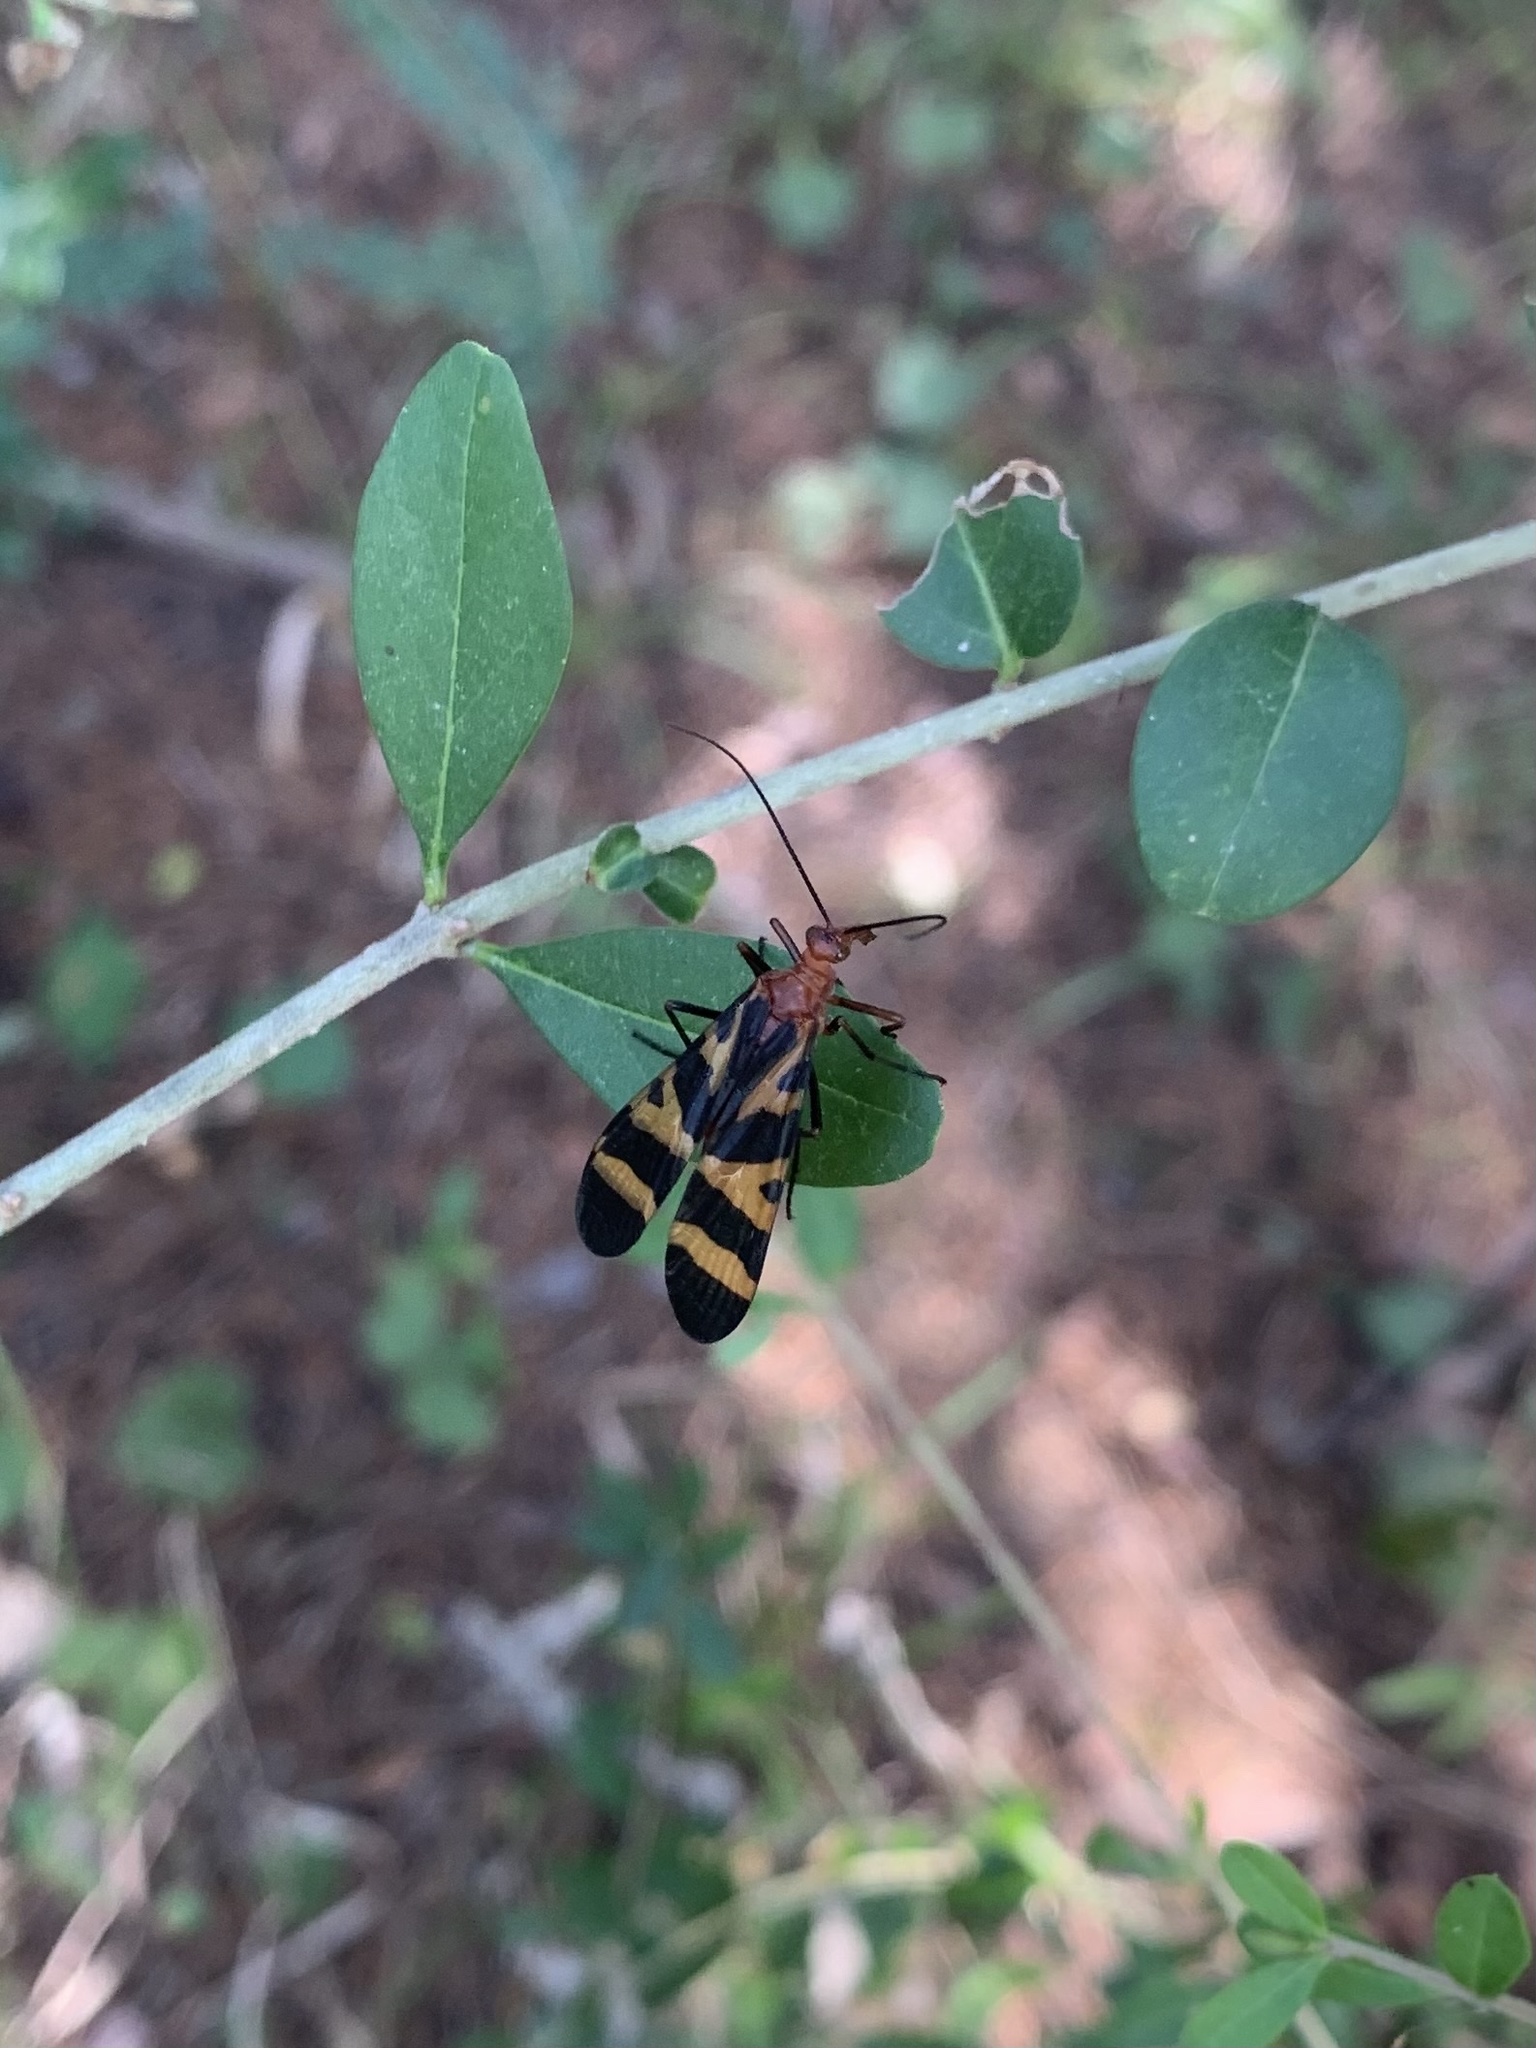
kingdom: Animalia
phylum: Arthropoda
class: Insecta
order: Mecoptera
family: Panorpidae
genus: Panorpa
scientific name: Panorpa nuptialis
